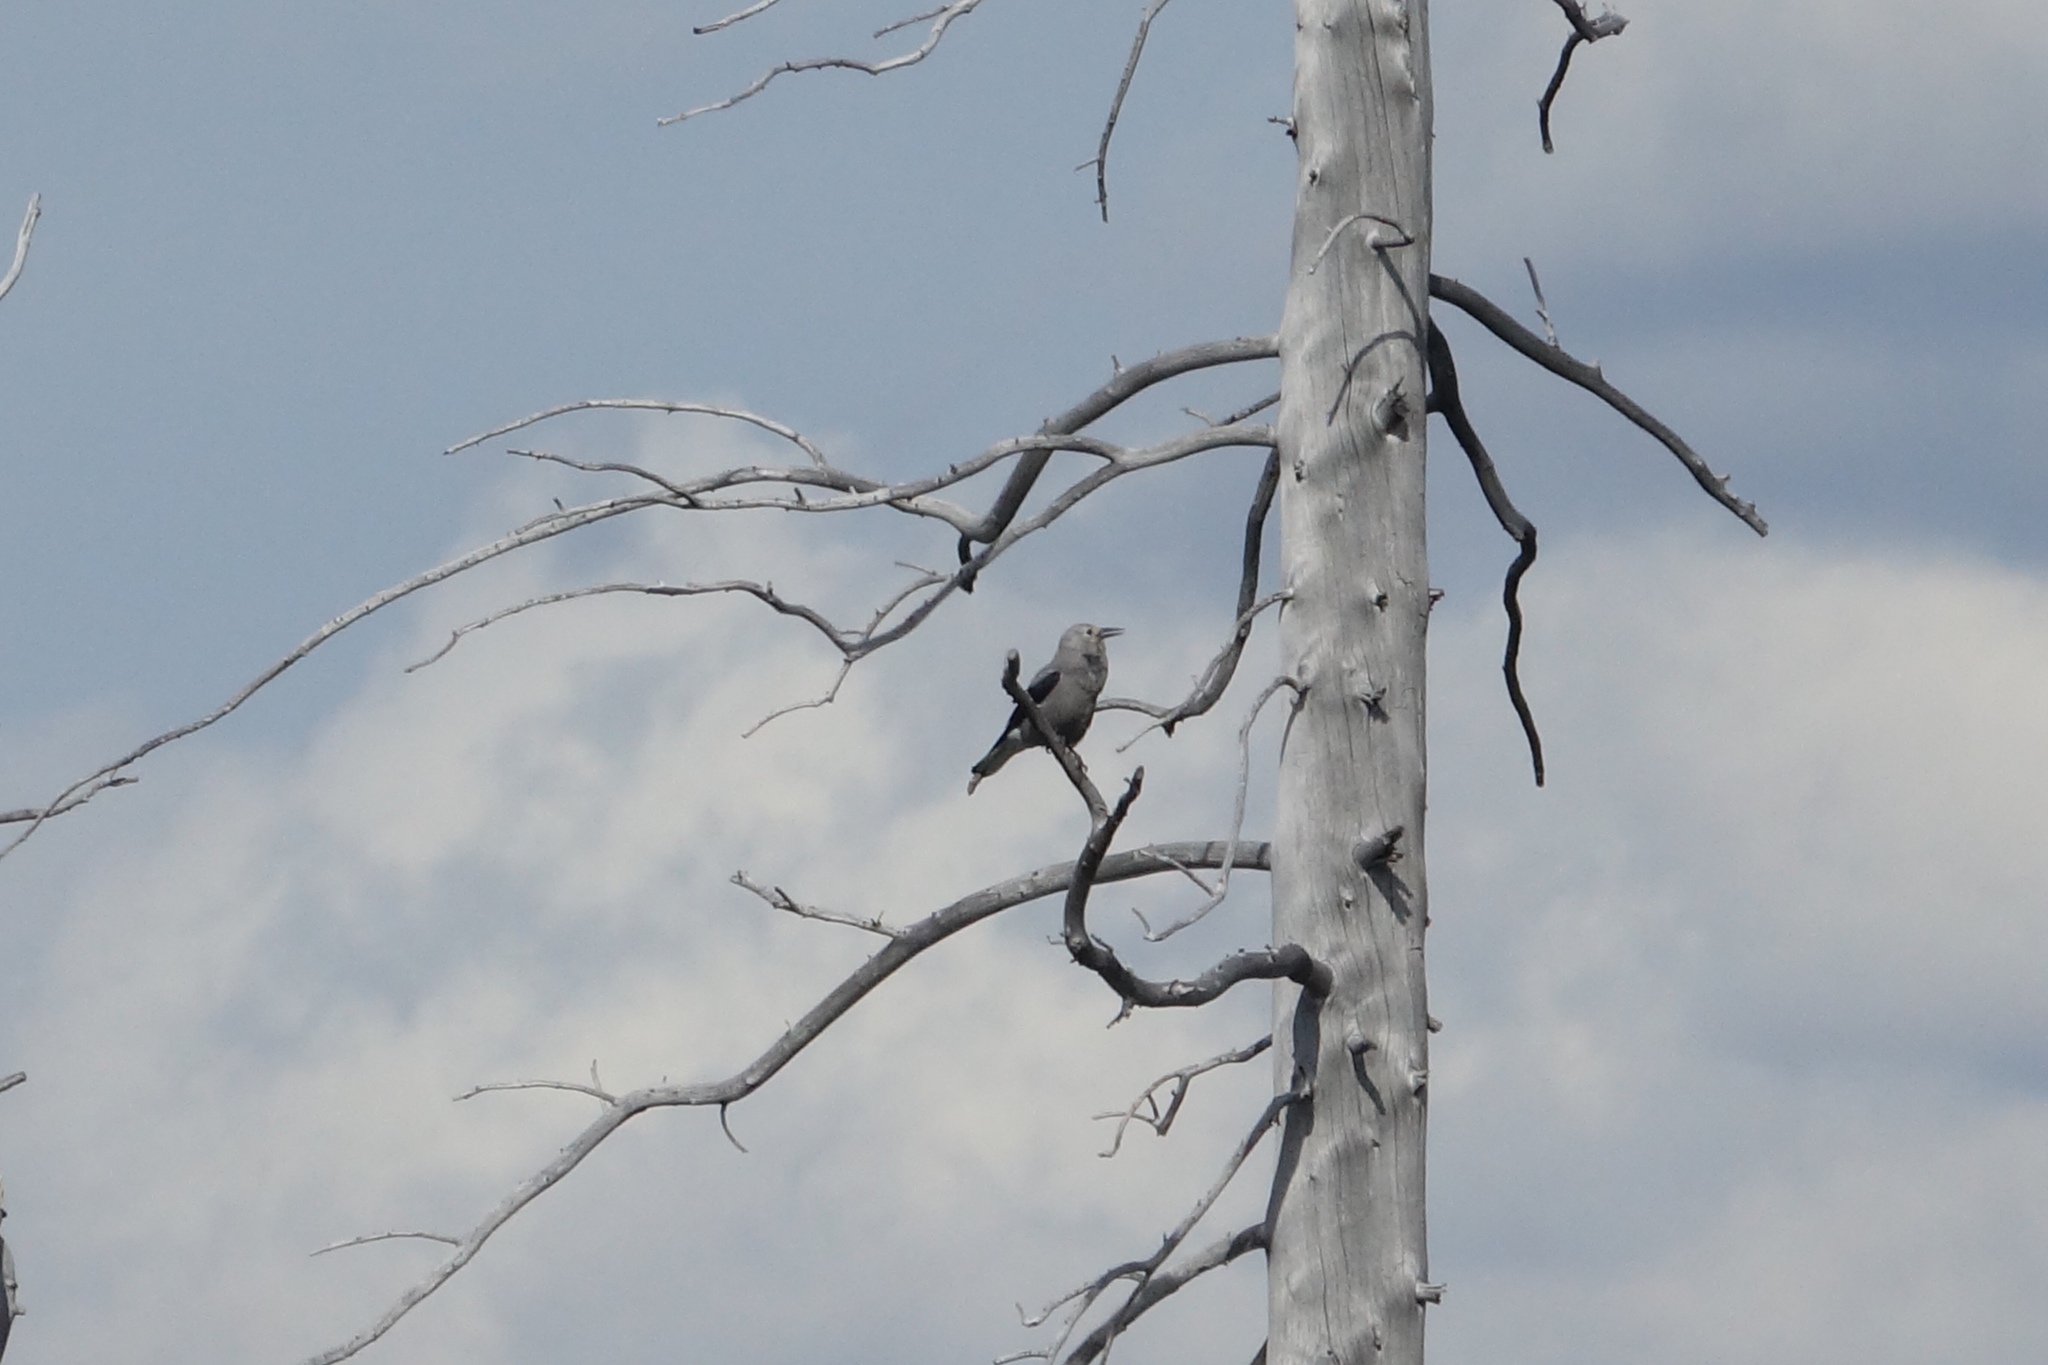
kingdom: Animalia
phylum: Chordata
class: Aves
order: Passeriformes
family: Corvidae
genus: Nucifraga
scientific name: Nucifraga columbiana
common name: Clark's nutcracker
